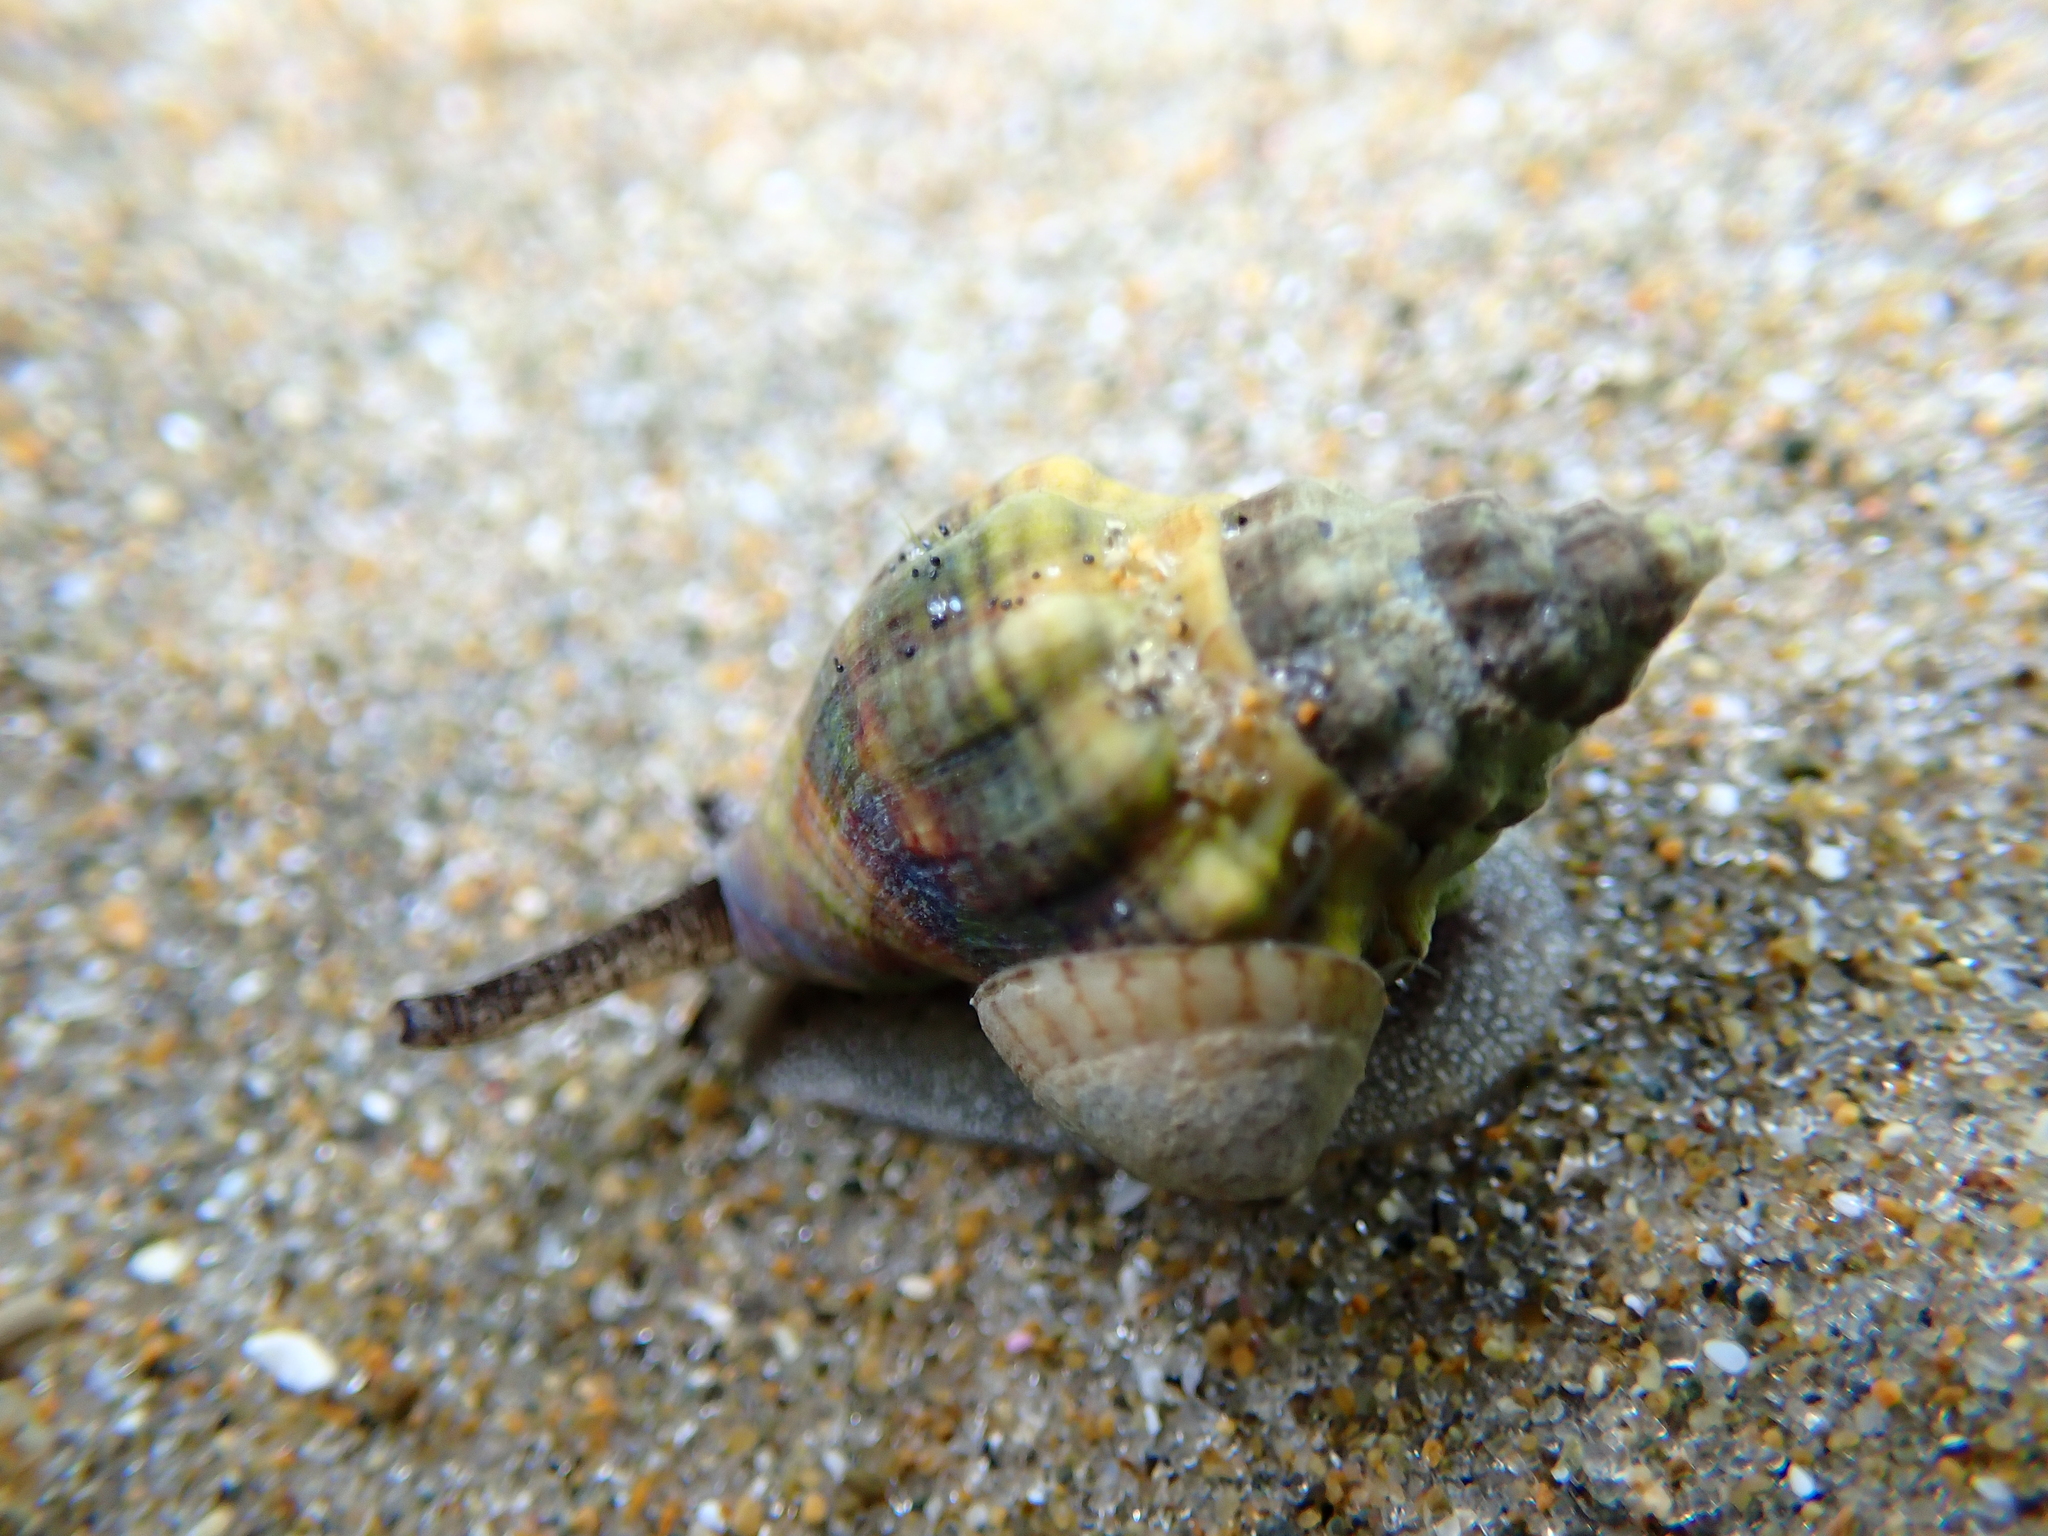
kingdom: Animalia
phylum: Mollusca
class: Gastropoda
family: Lottiidae
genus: Notoacmea
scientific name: Notoacmea potae
